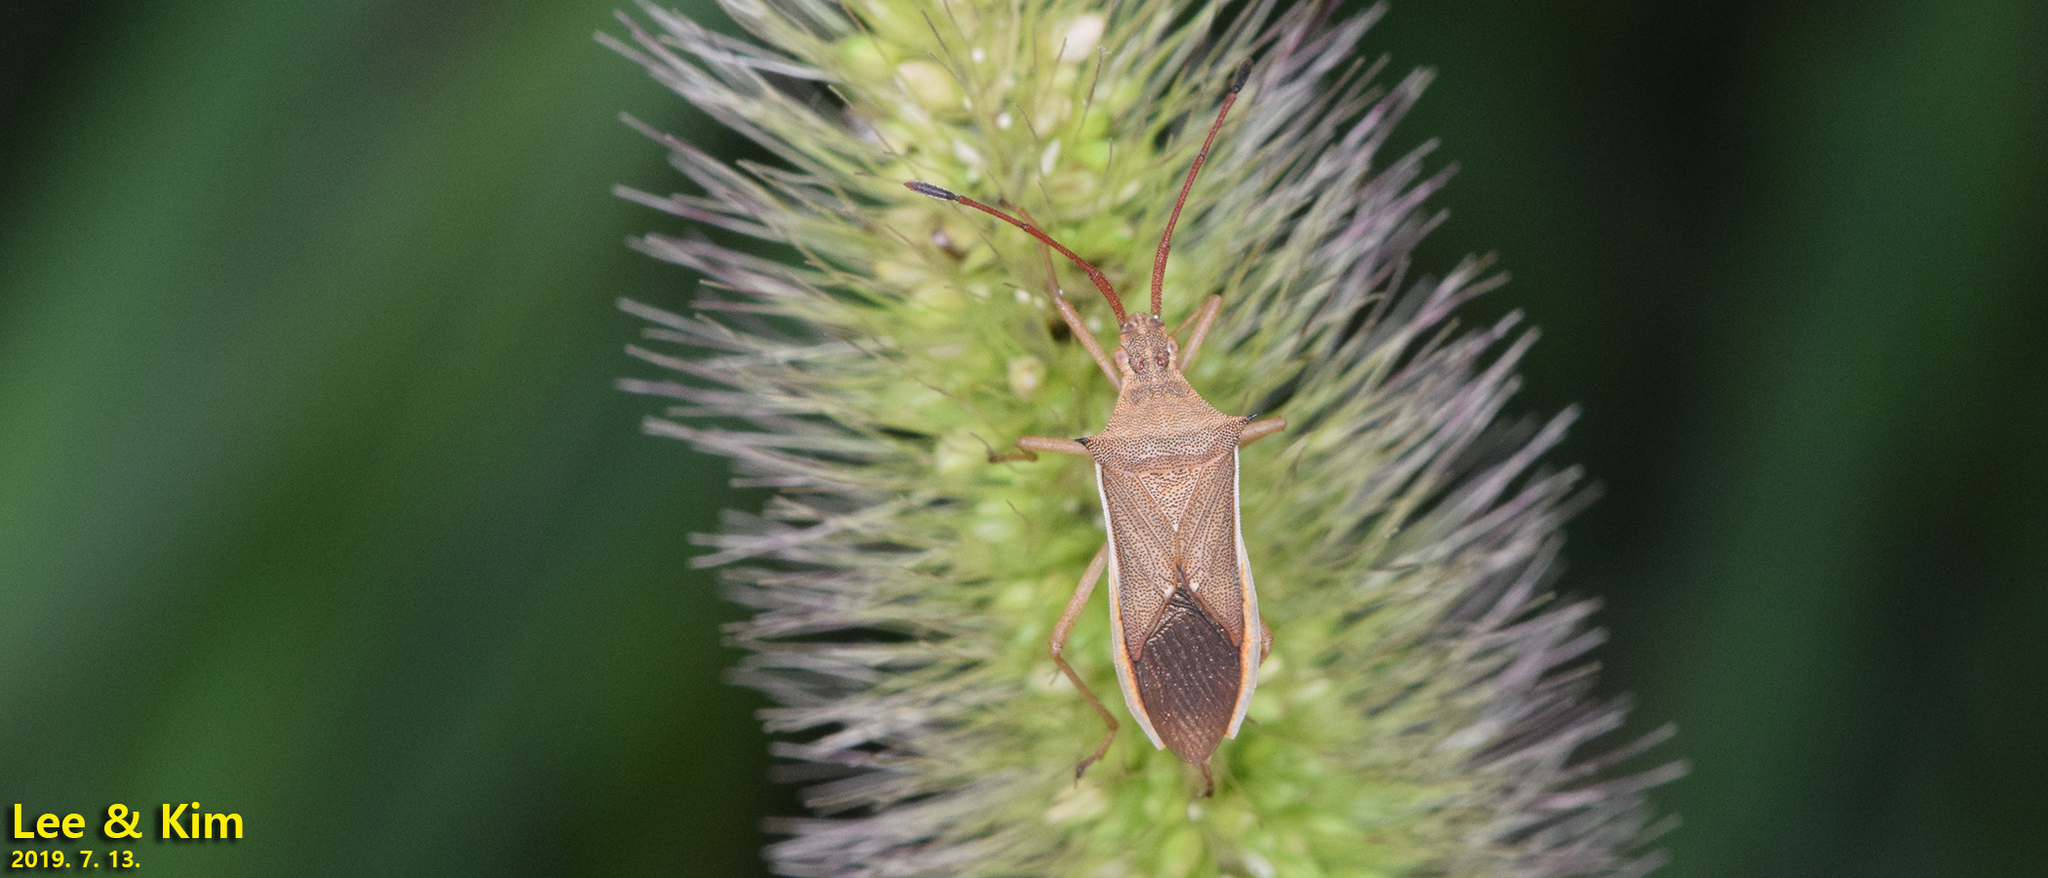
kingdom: Animalia
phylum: Arthropoda
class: Insecta
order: Hemiptera
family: Coreidae
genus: Cletus
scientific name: Cletus punctiger
